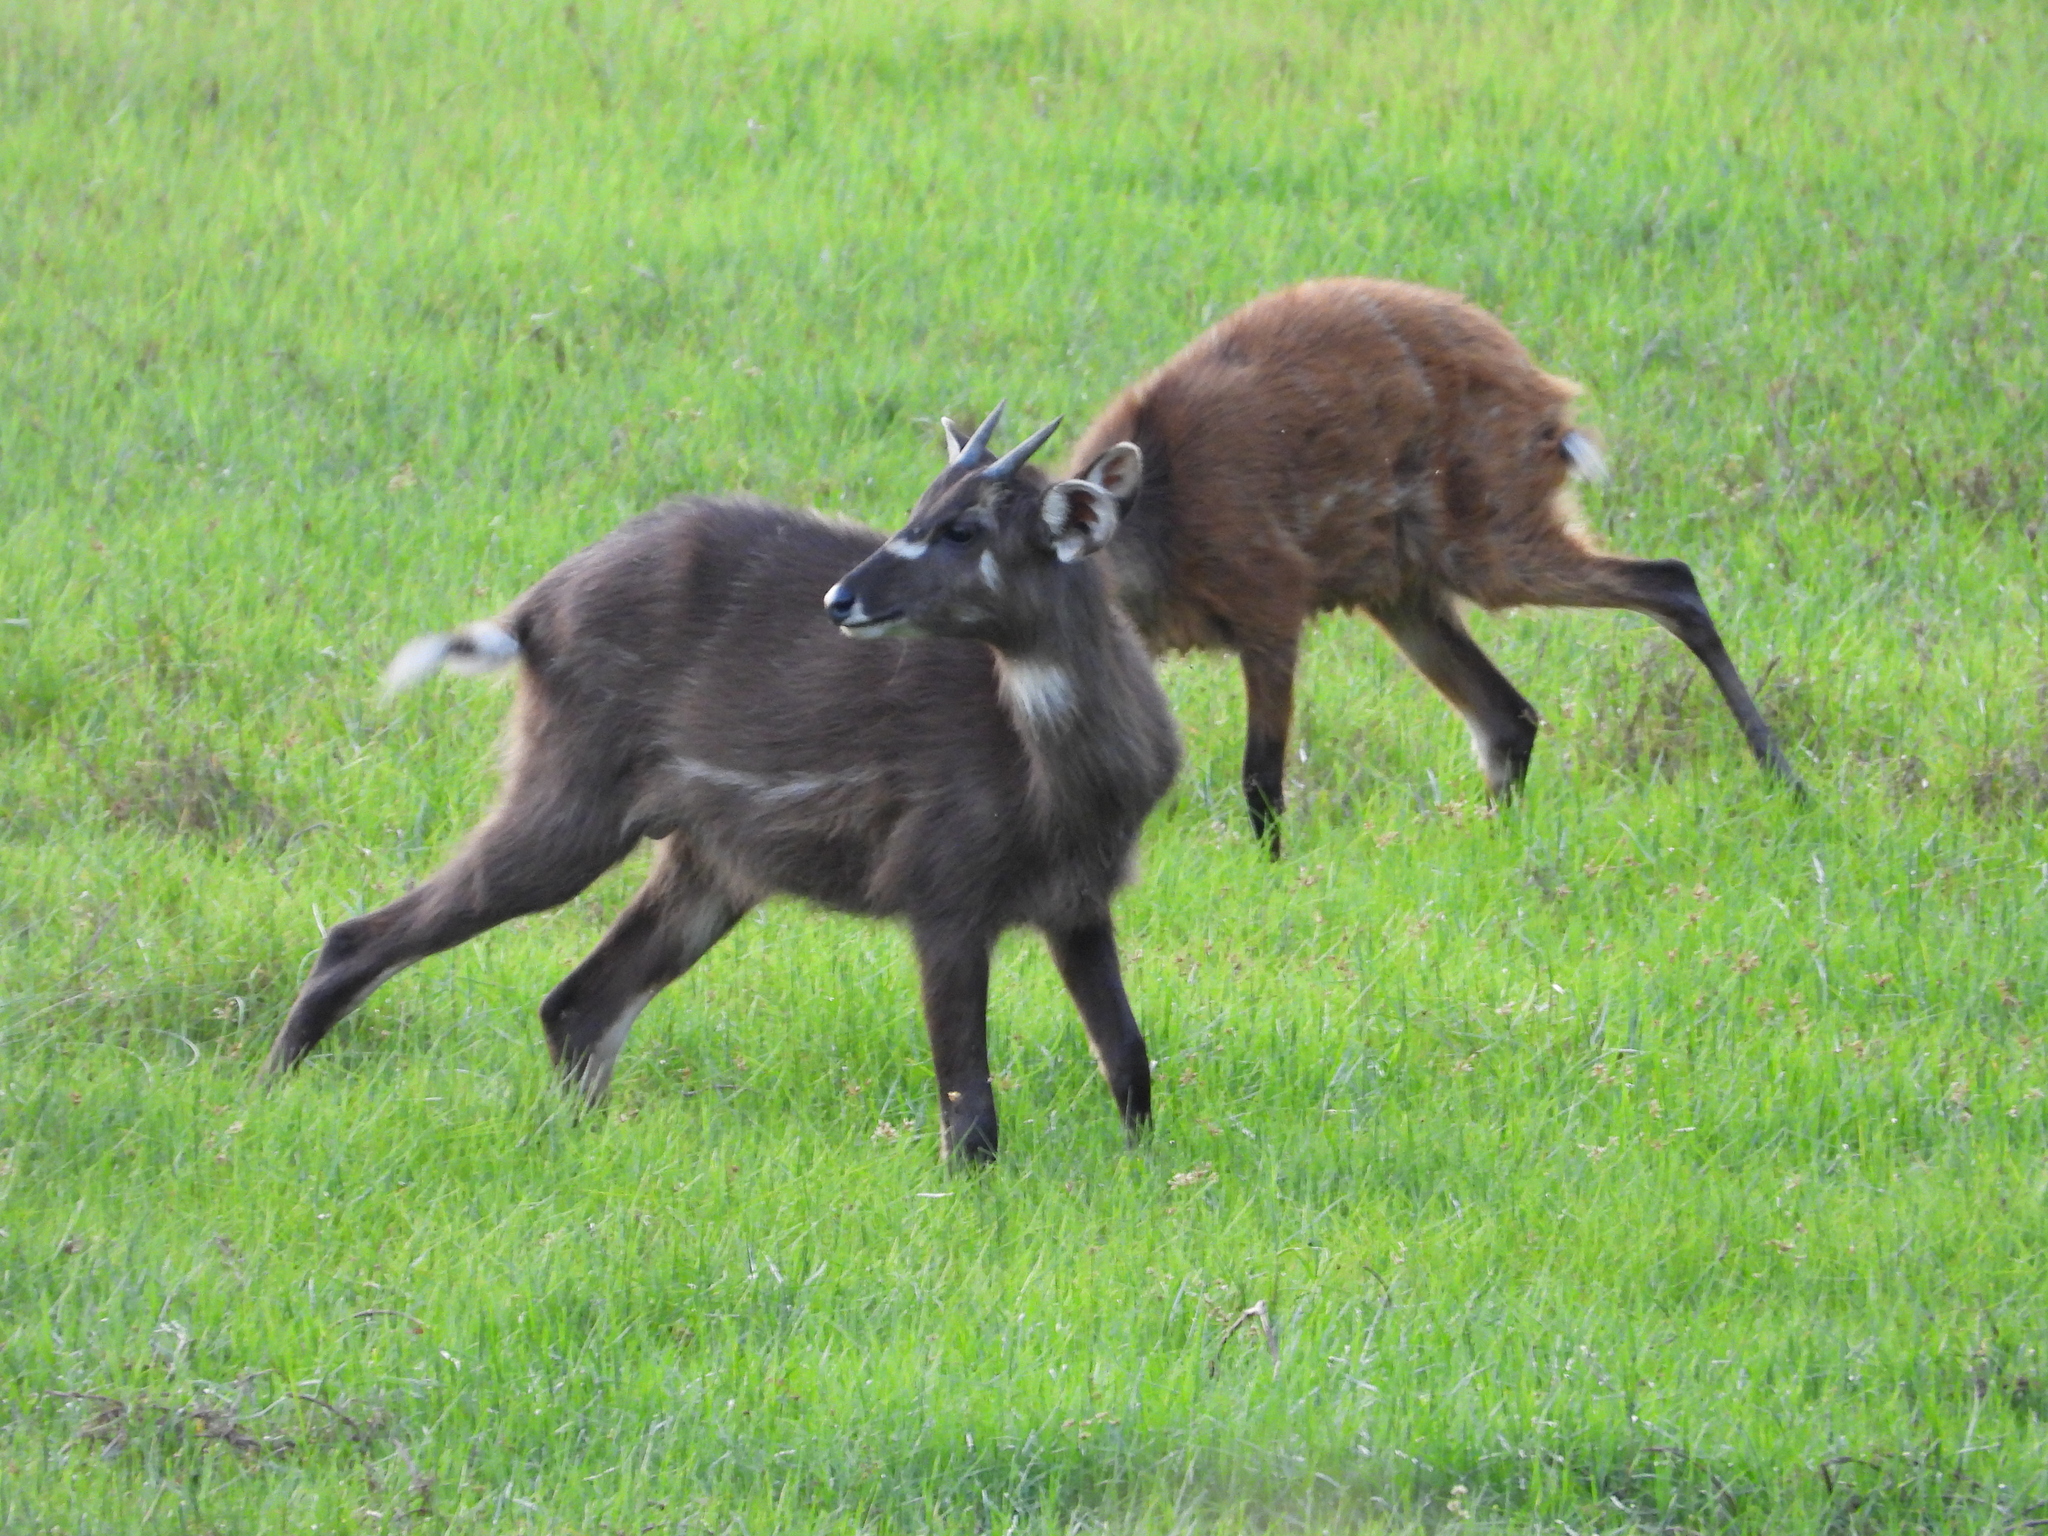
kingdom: Animalia
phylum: Chordata
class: Mammalia
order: Artiodactyla
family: Bovidae
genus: Tragelaphus
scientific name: Tragelaphus spekii
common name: Sitatunga
